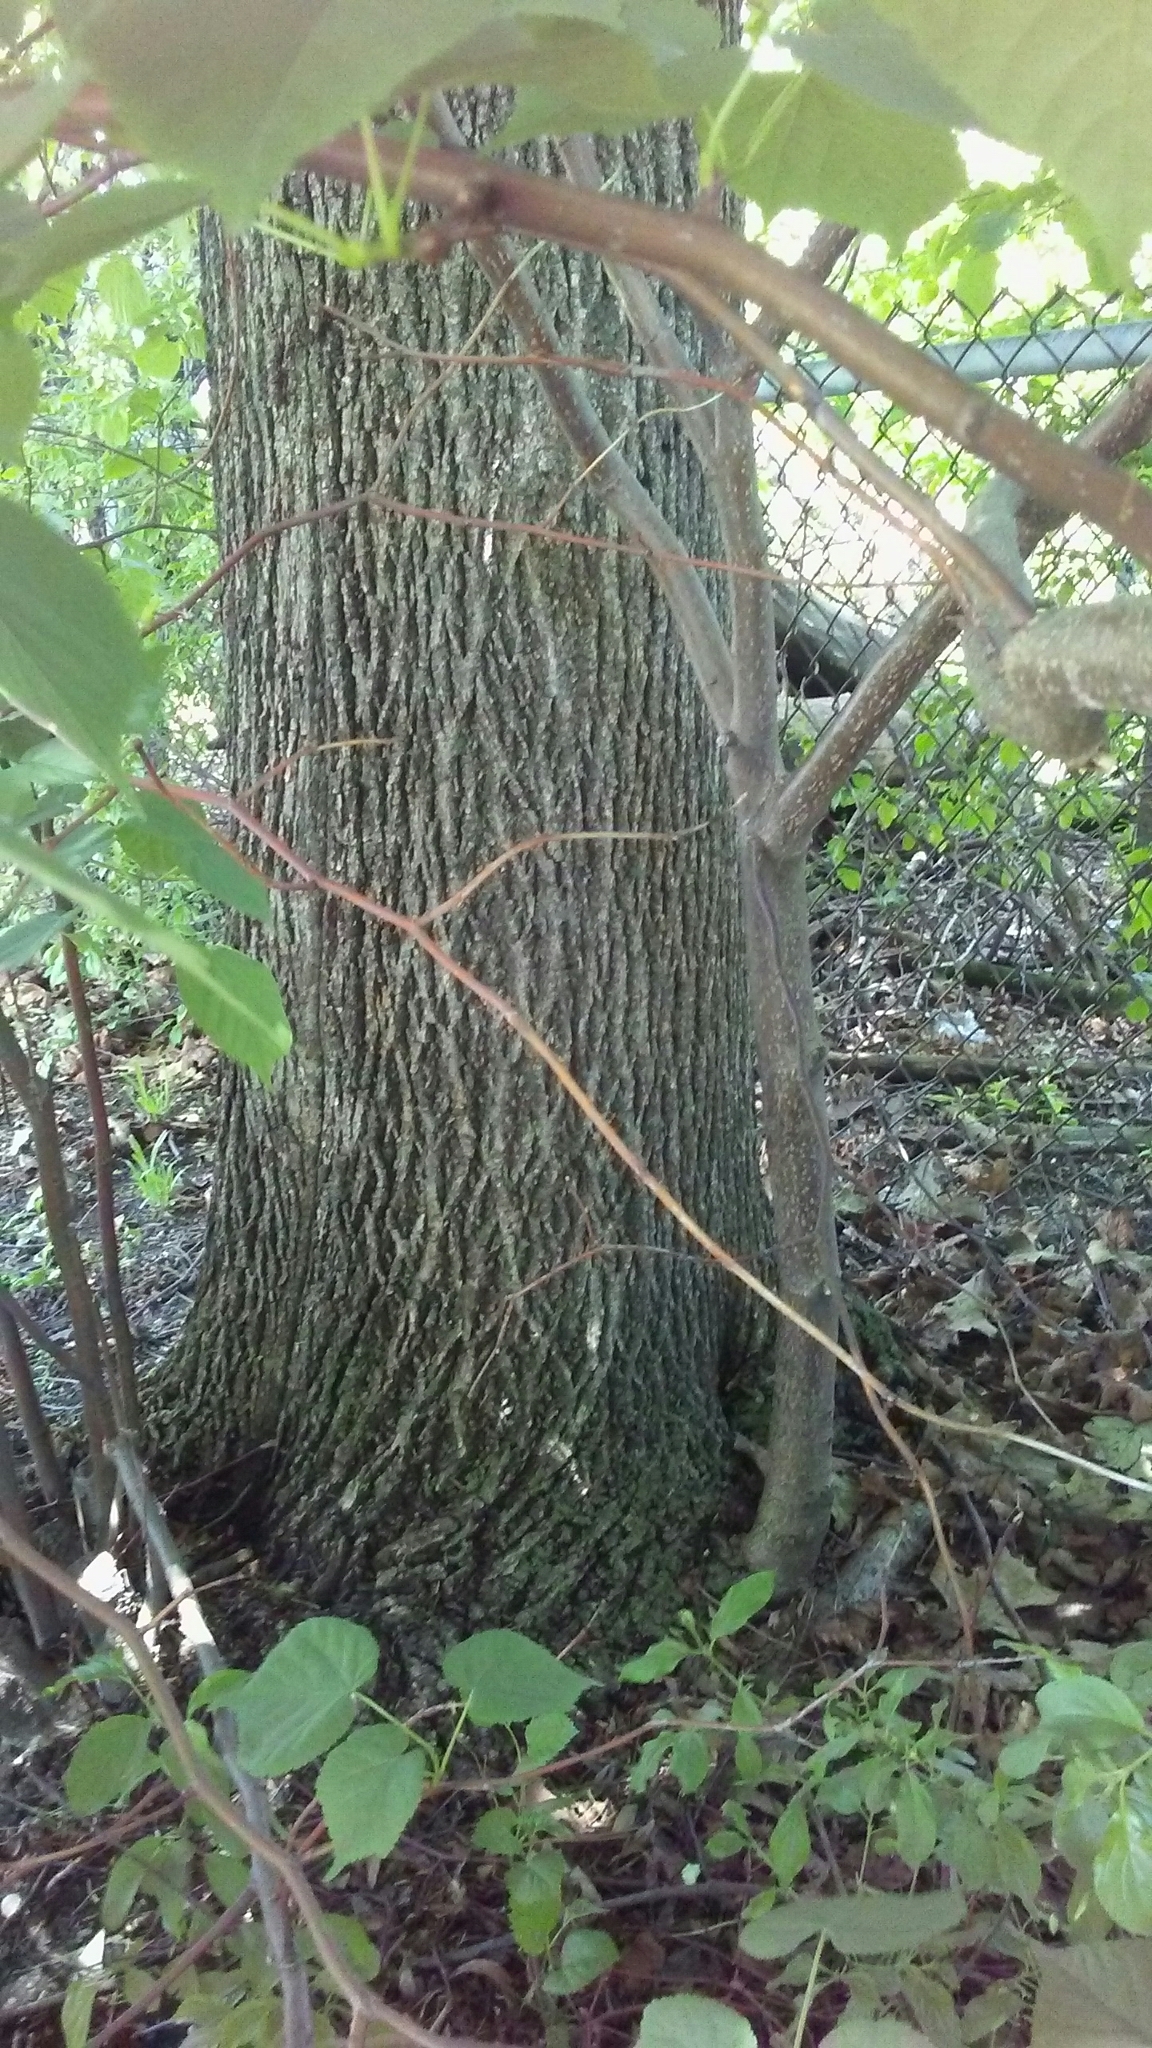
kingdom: Plantae
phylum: Tracheophyta
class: Magnoliopsida
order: Malvales
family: Malvaceae
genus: Tilia
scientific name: Tilia americana
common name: Basswood
